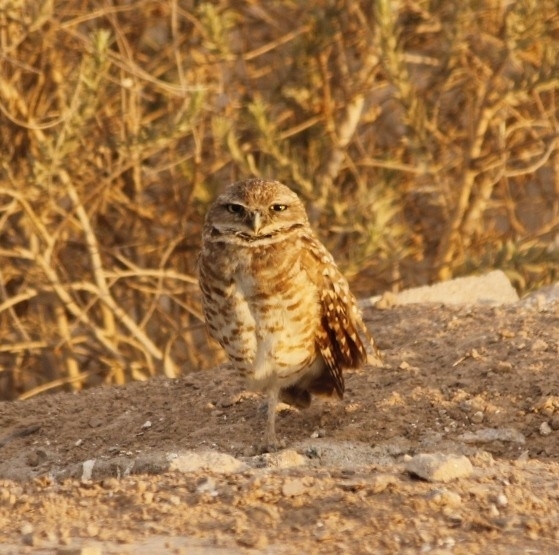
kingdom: Animalia
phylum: Chordata
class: Aves
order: Strigiformes
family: Strigidae
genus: Athene
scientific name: Athene cunicularia
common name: Burrowing owl
